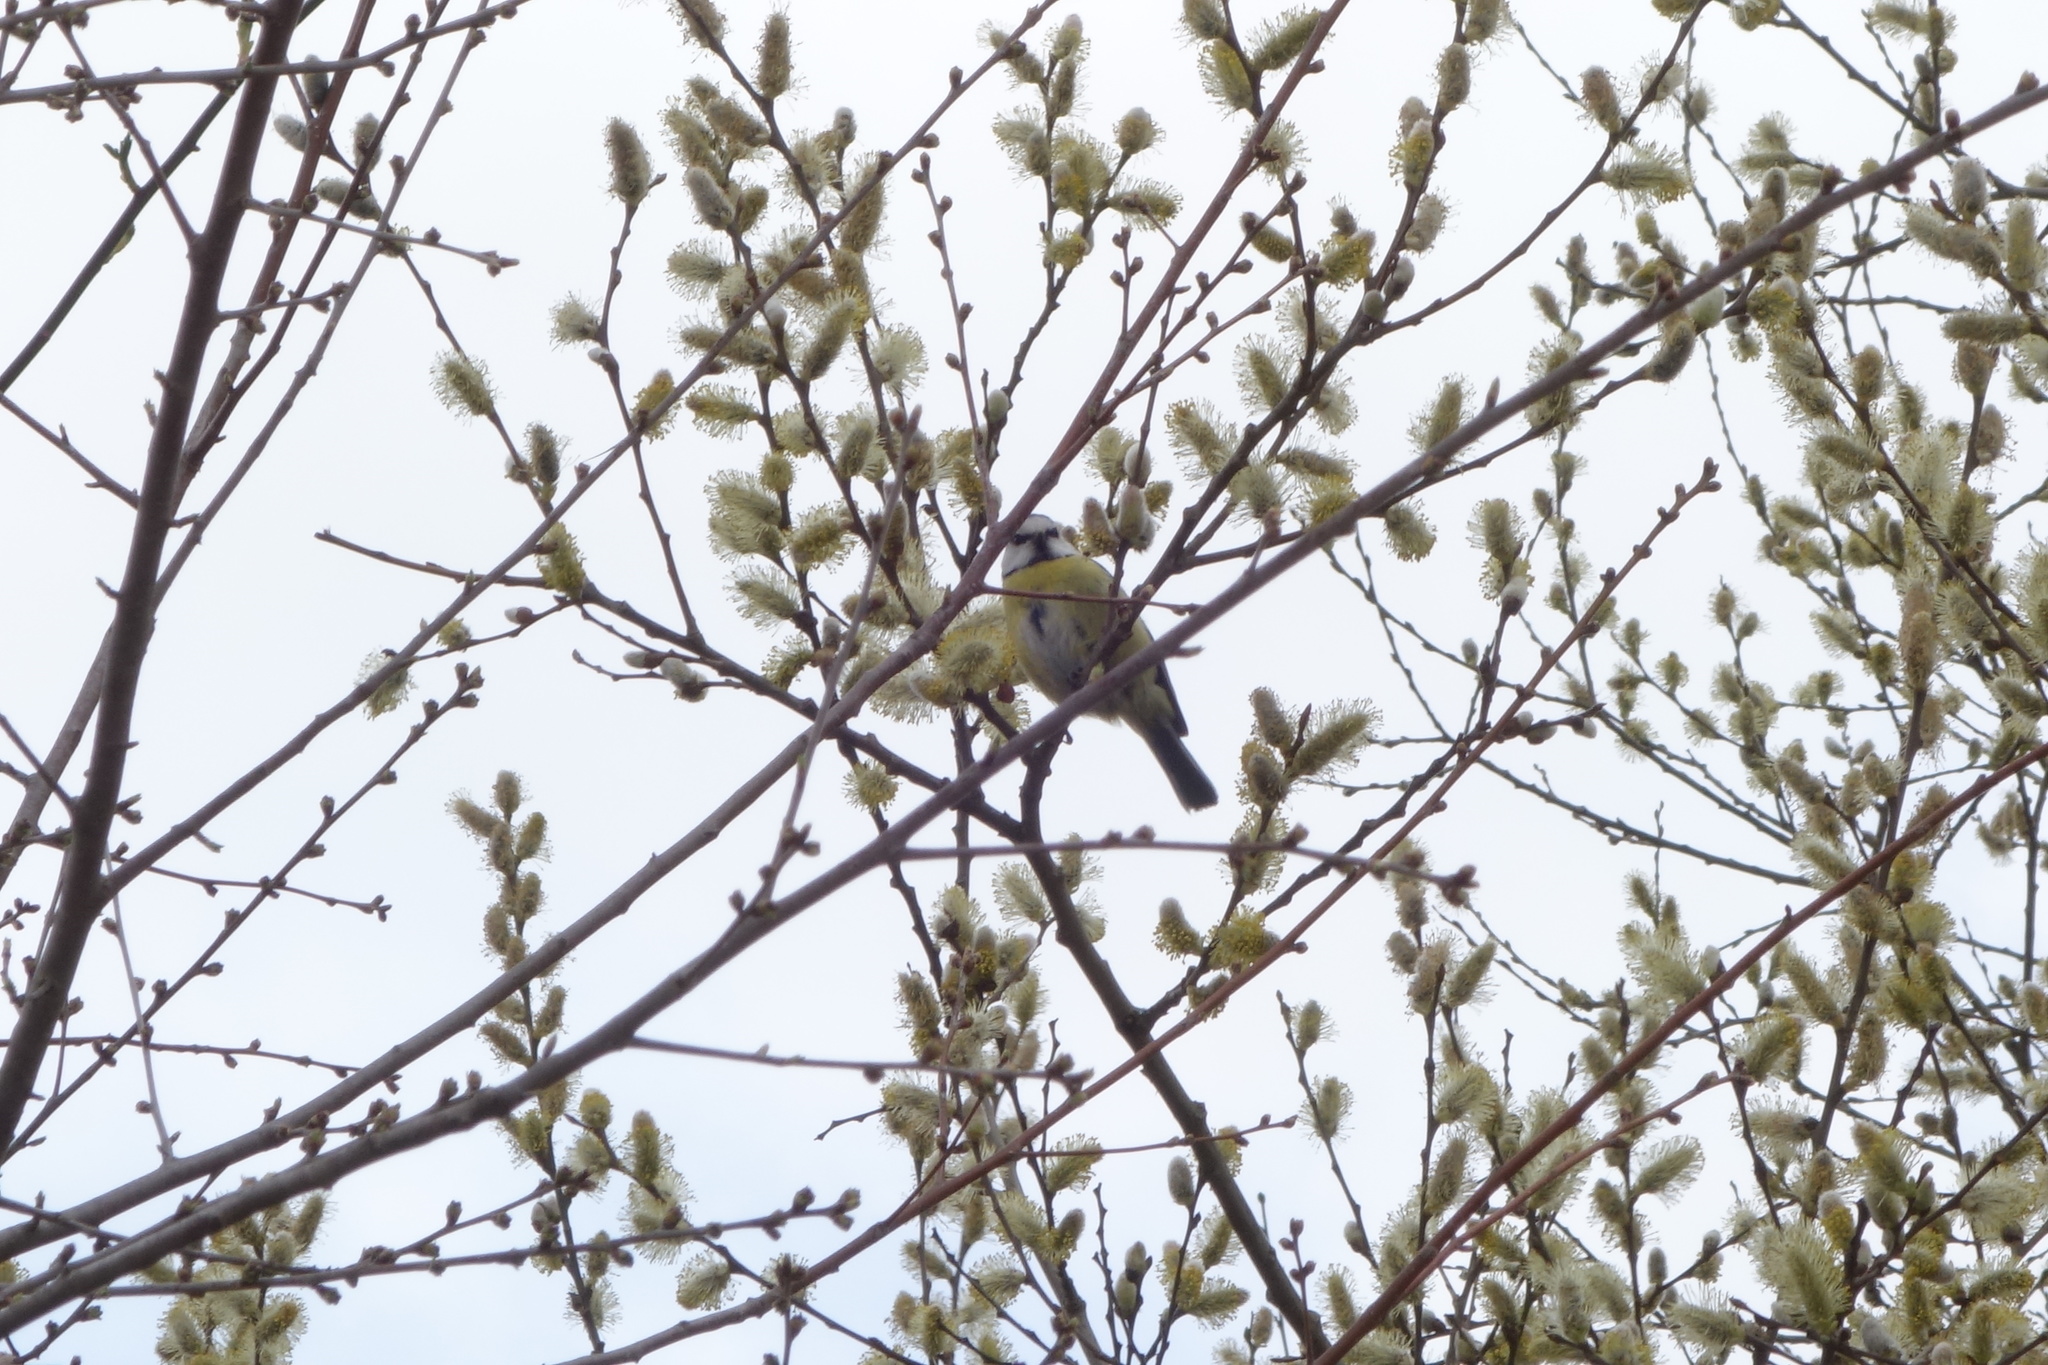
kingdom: Animalia
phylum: Chordata
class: Aves
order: Passeriformes
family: Paridae
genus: Cyanistes
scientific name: Cyanistes caeruleus
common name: Eurasian blue tit
